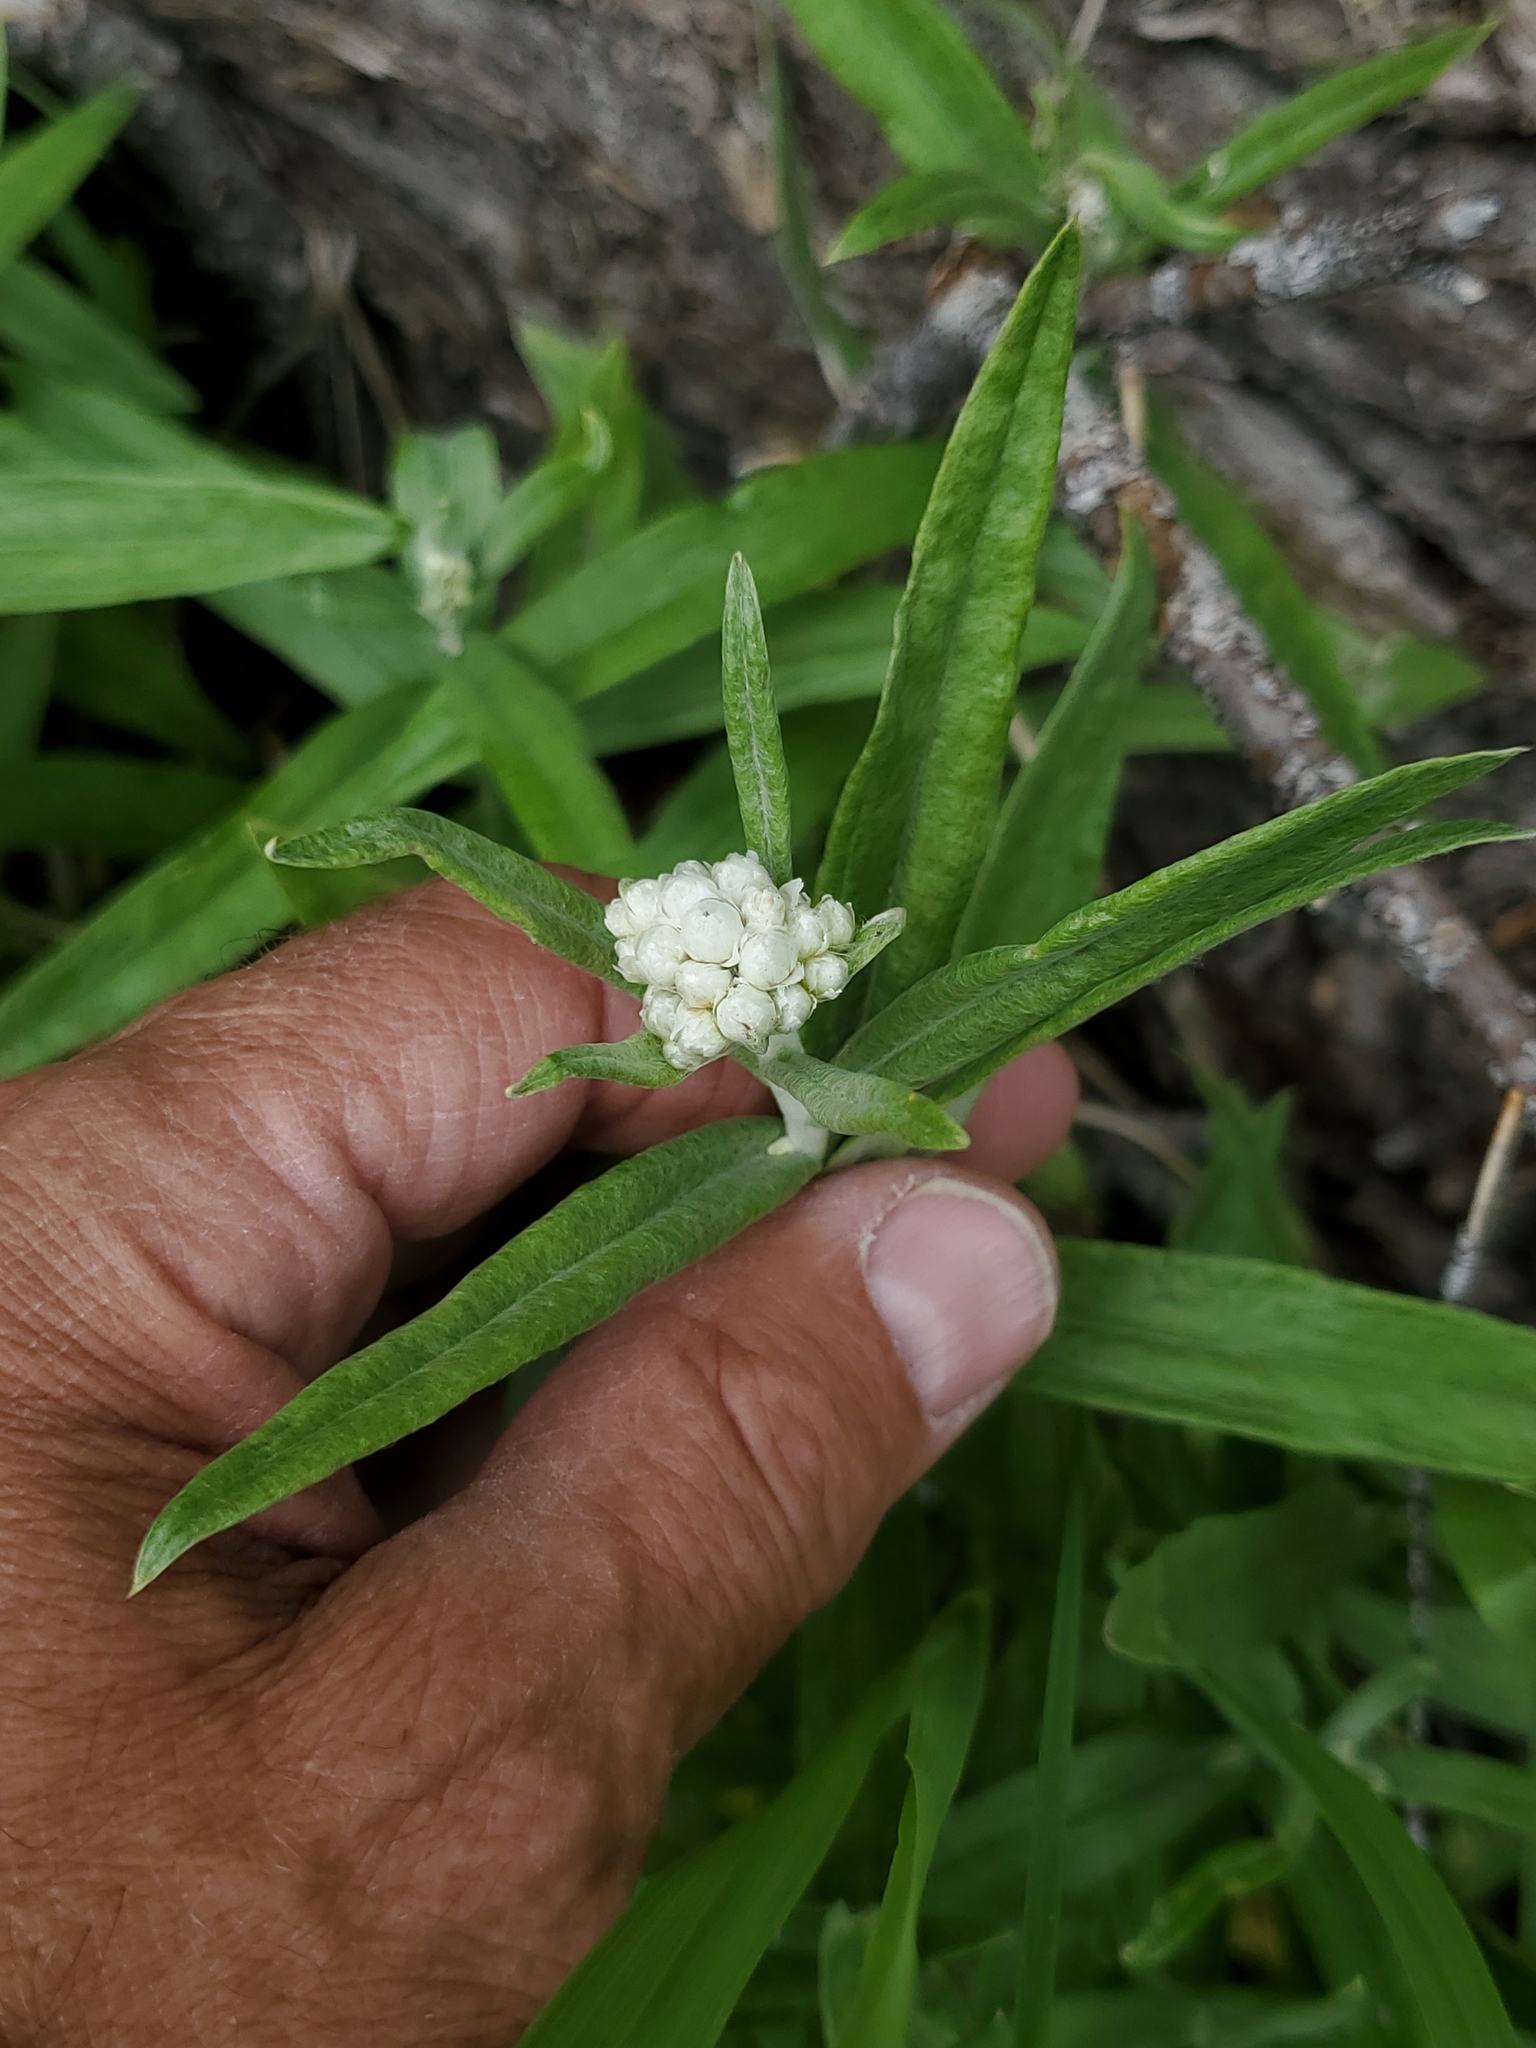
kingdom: Plantae
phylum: Tracheophyta
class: Magnoliopsida
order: Asterales
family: Asteraceae
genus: Anaphalis
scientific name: Anaphalis margaritacea
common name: Pearly everlasting
